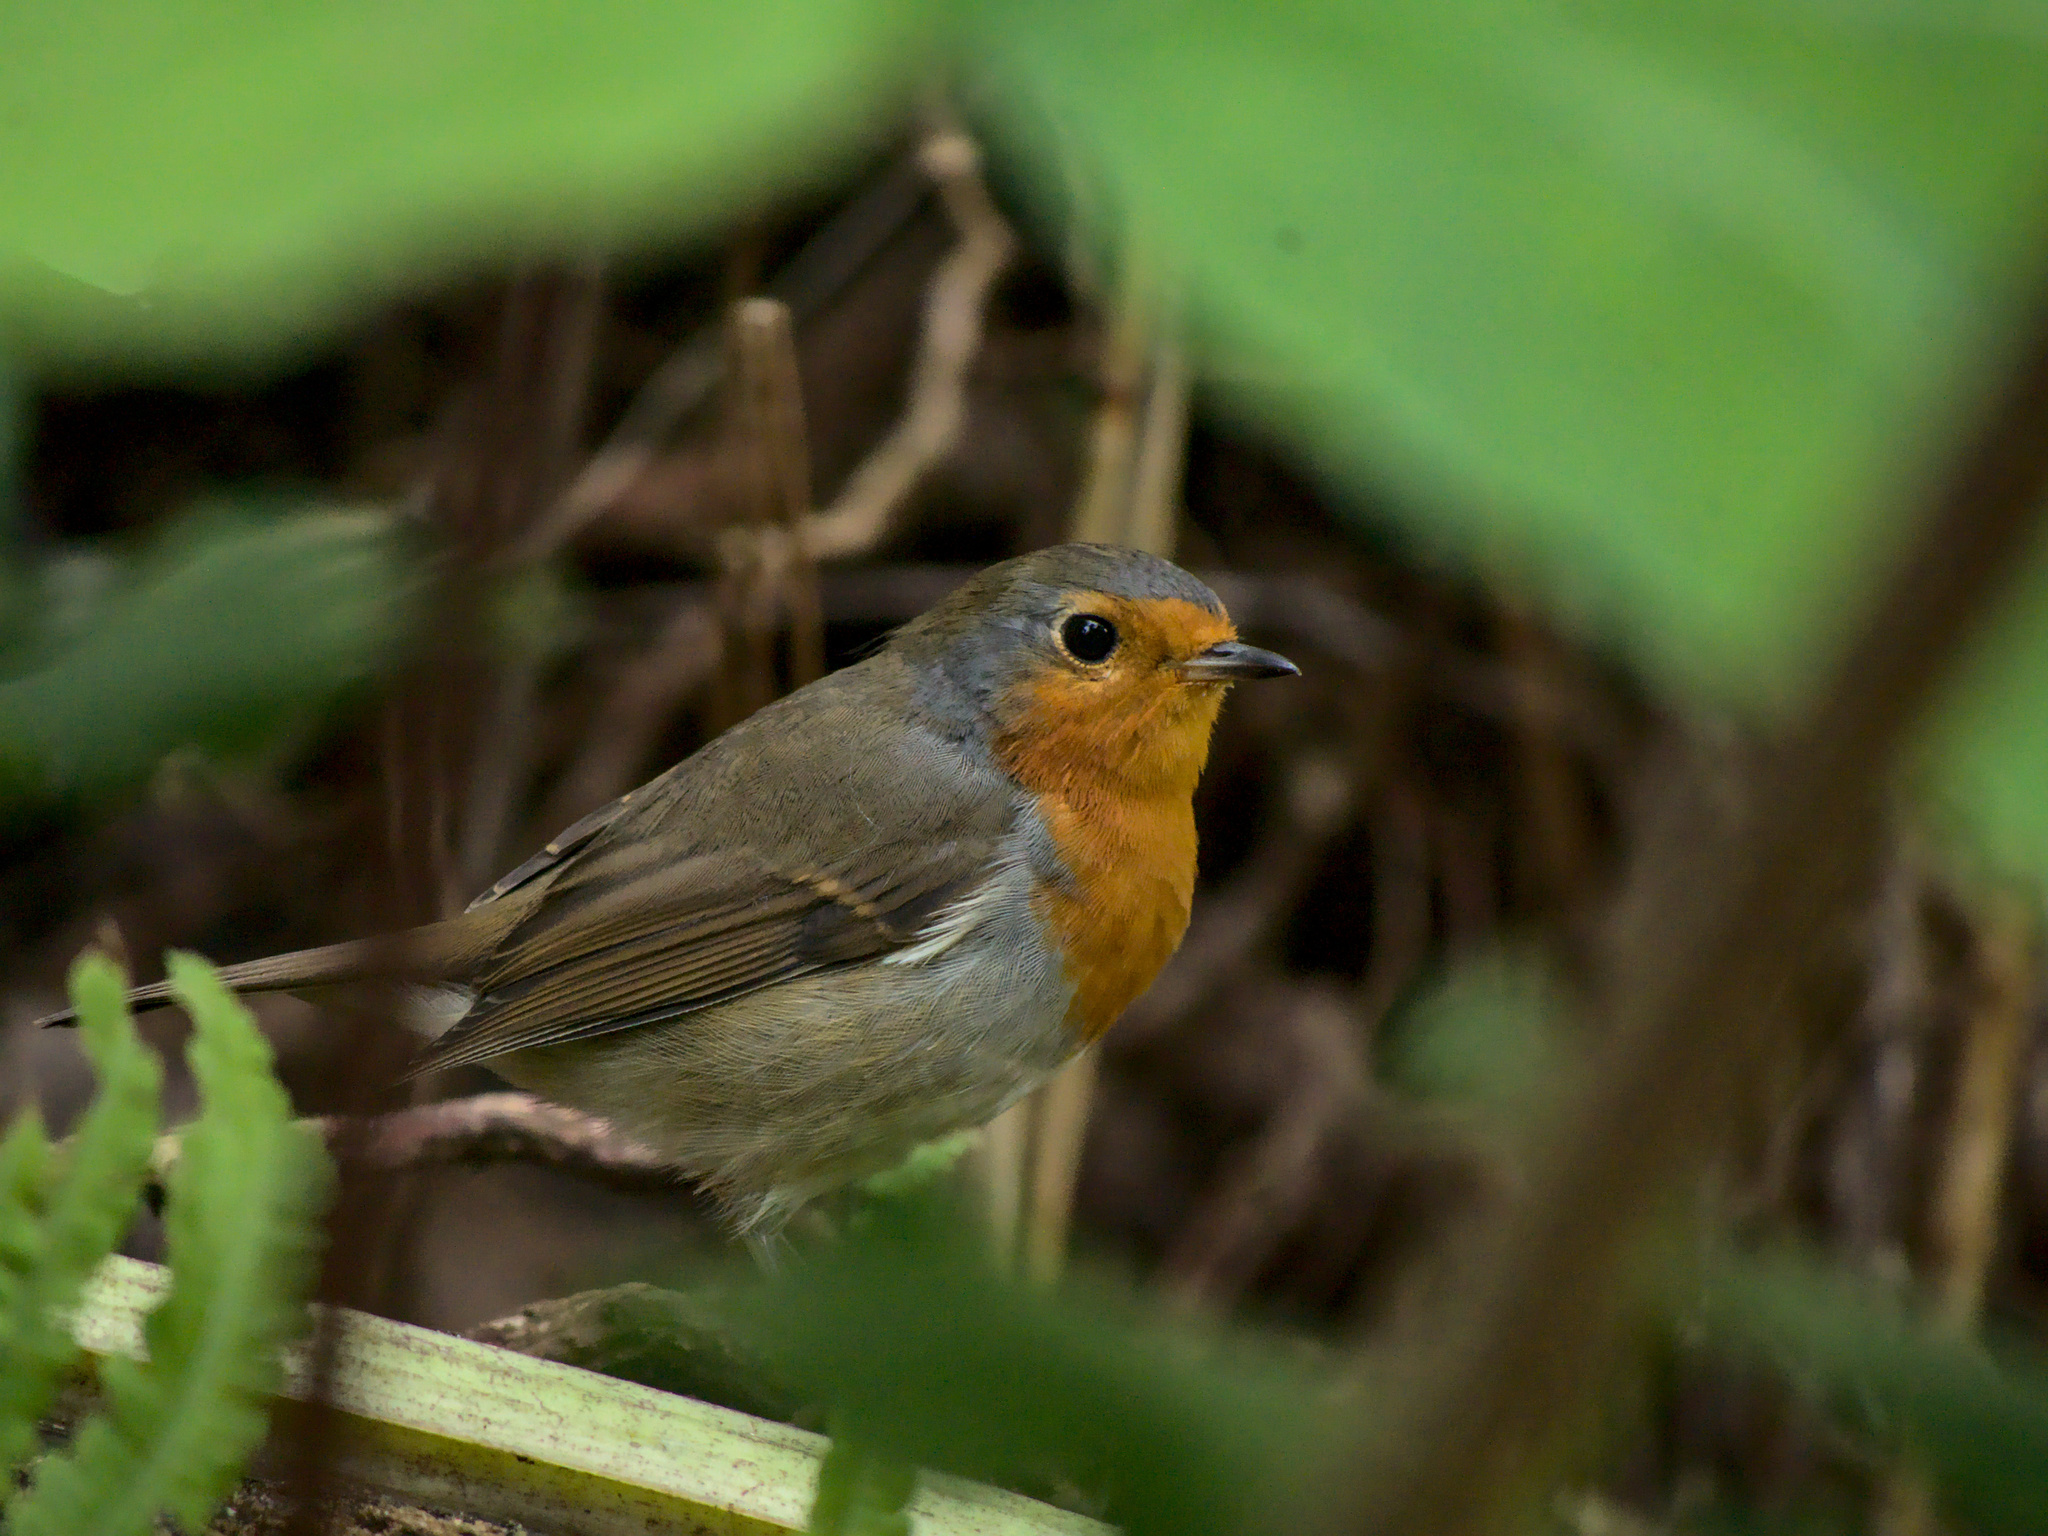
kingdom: Animalia
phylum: Chordata
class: Aves
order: Passeriformes
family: Muscicapidae
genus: Erithacus
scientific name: Erithacus rubecula
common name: European robin
